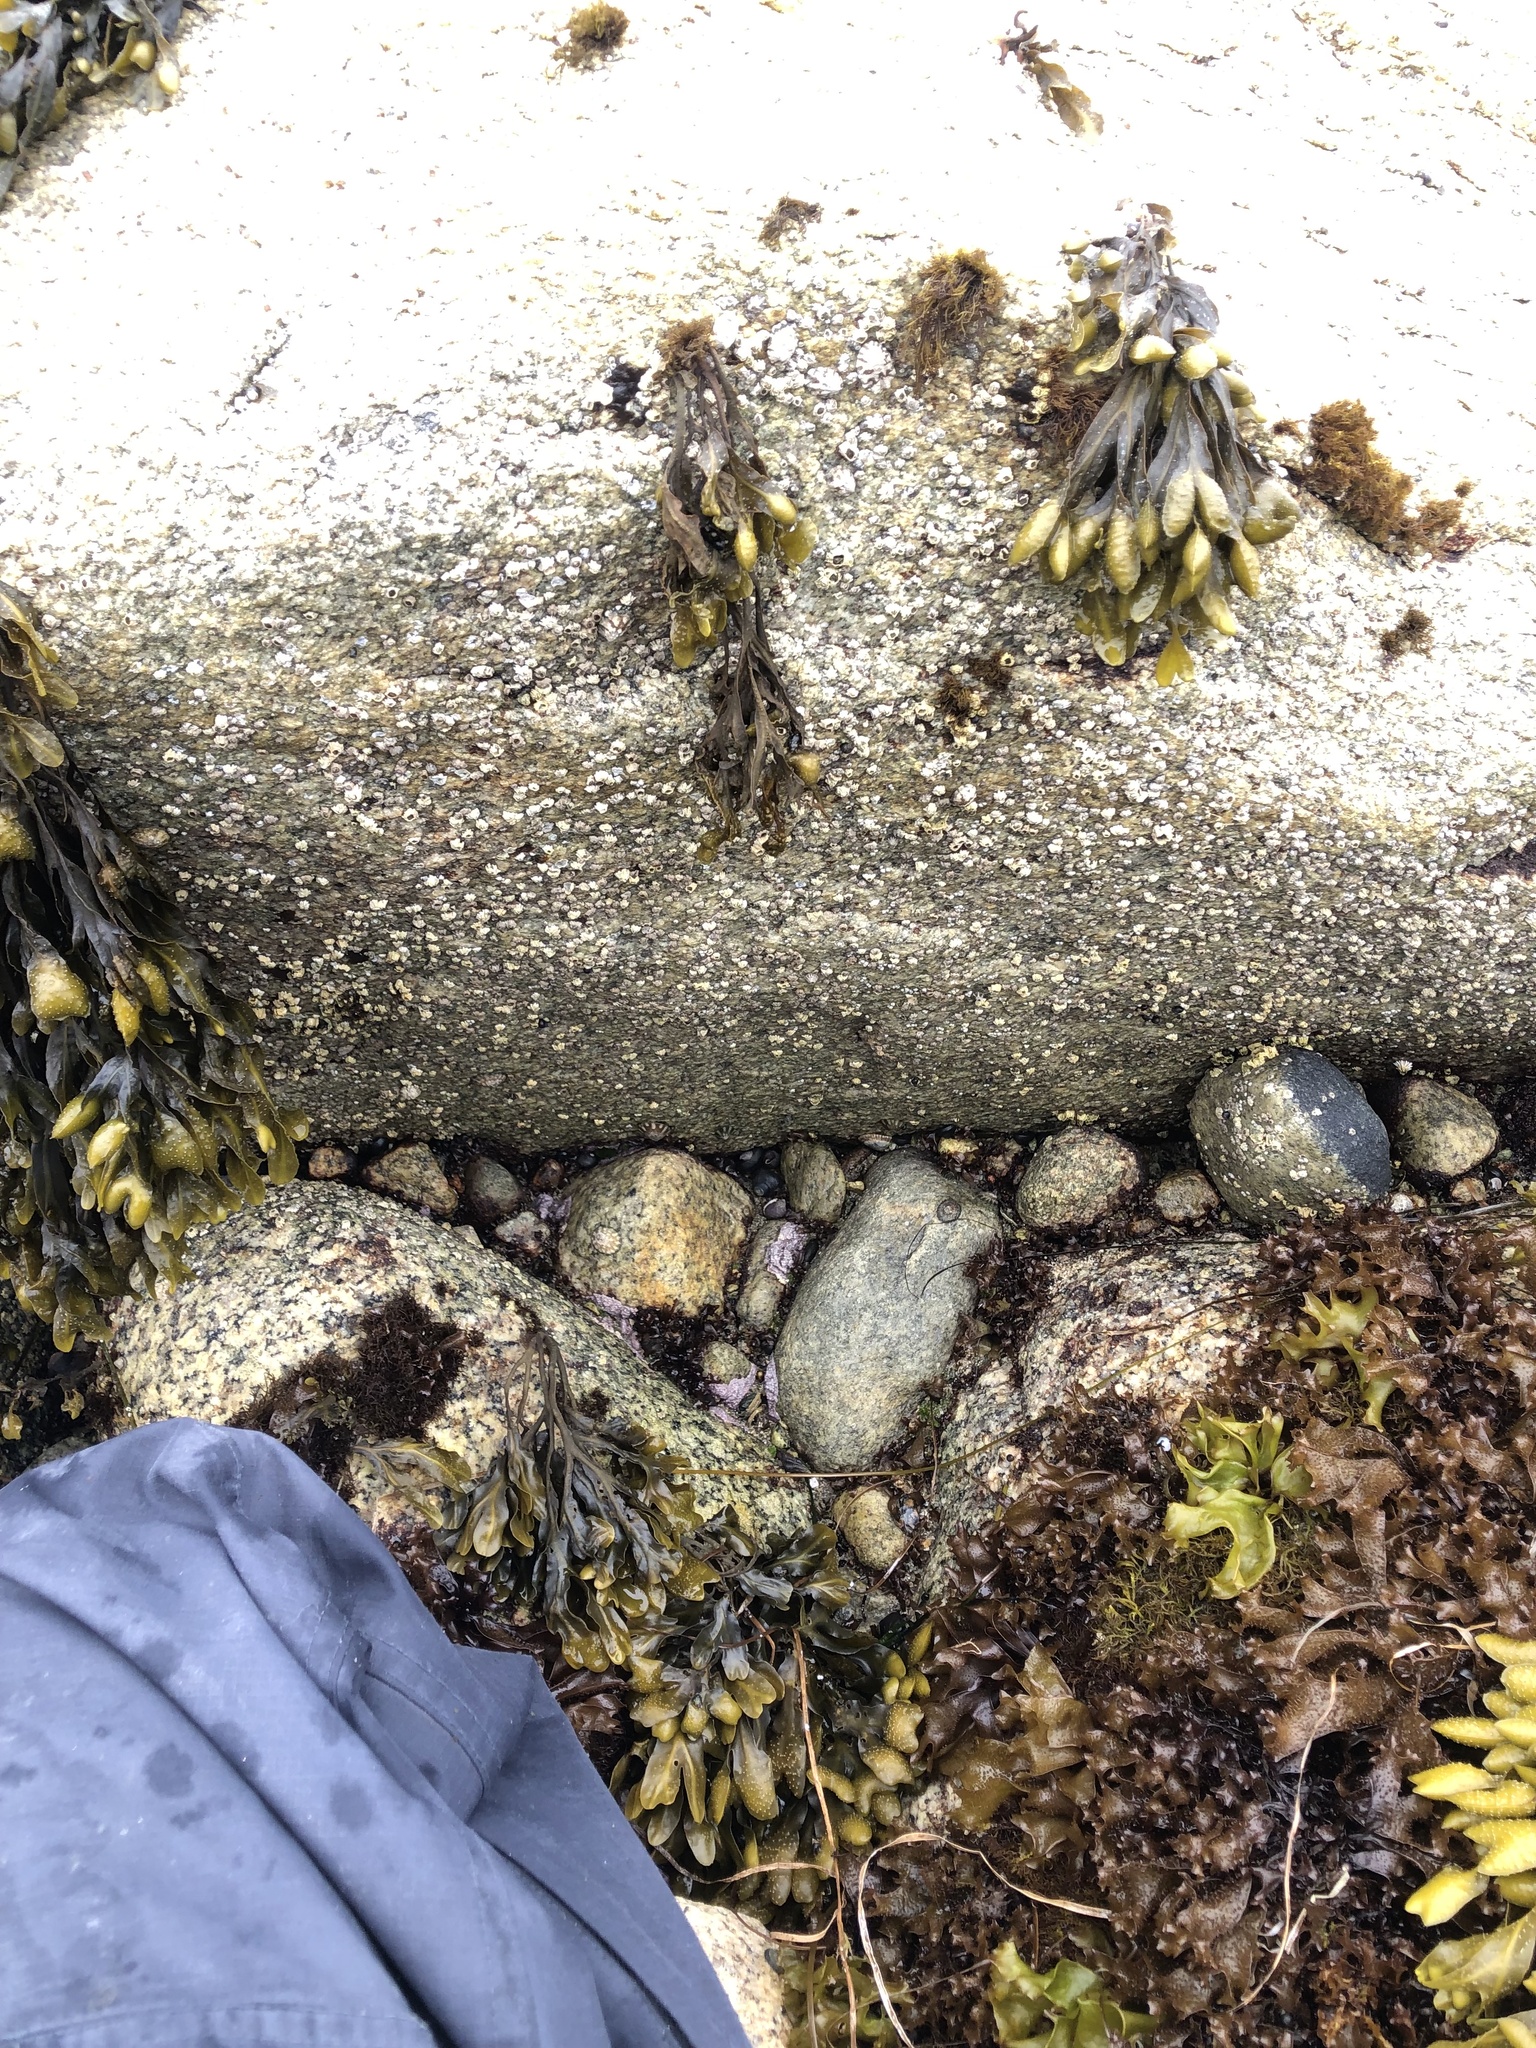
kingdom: Plantae
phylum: Rhodophyta
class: Florideophyceae
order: Corallinales
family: Corallinaceae
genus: Chamberlainium
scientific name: Chamberlainium tumidum
